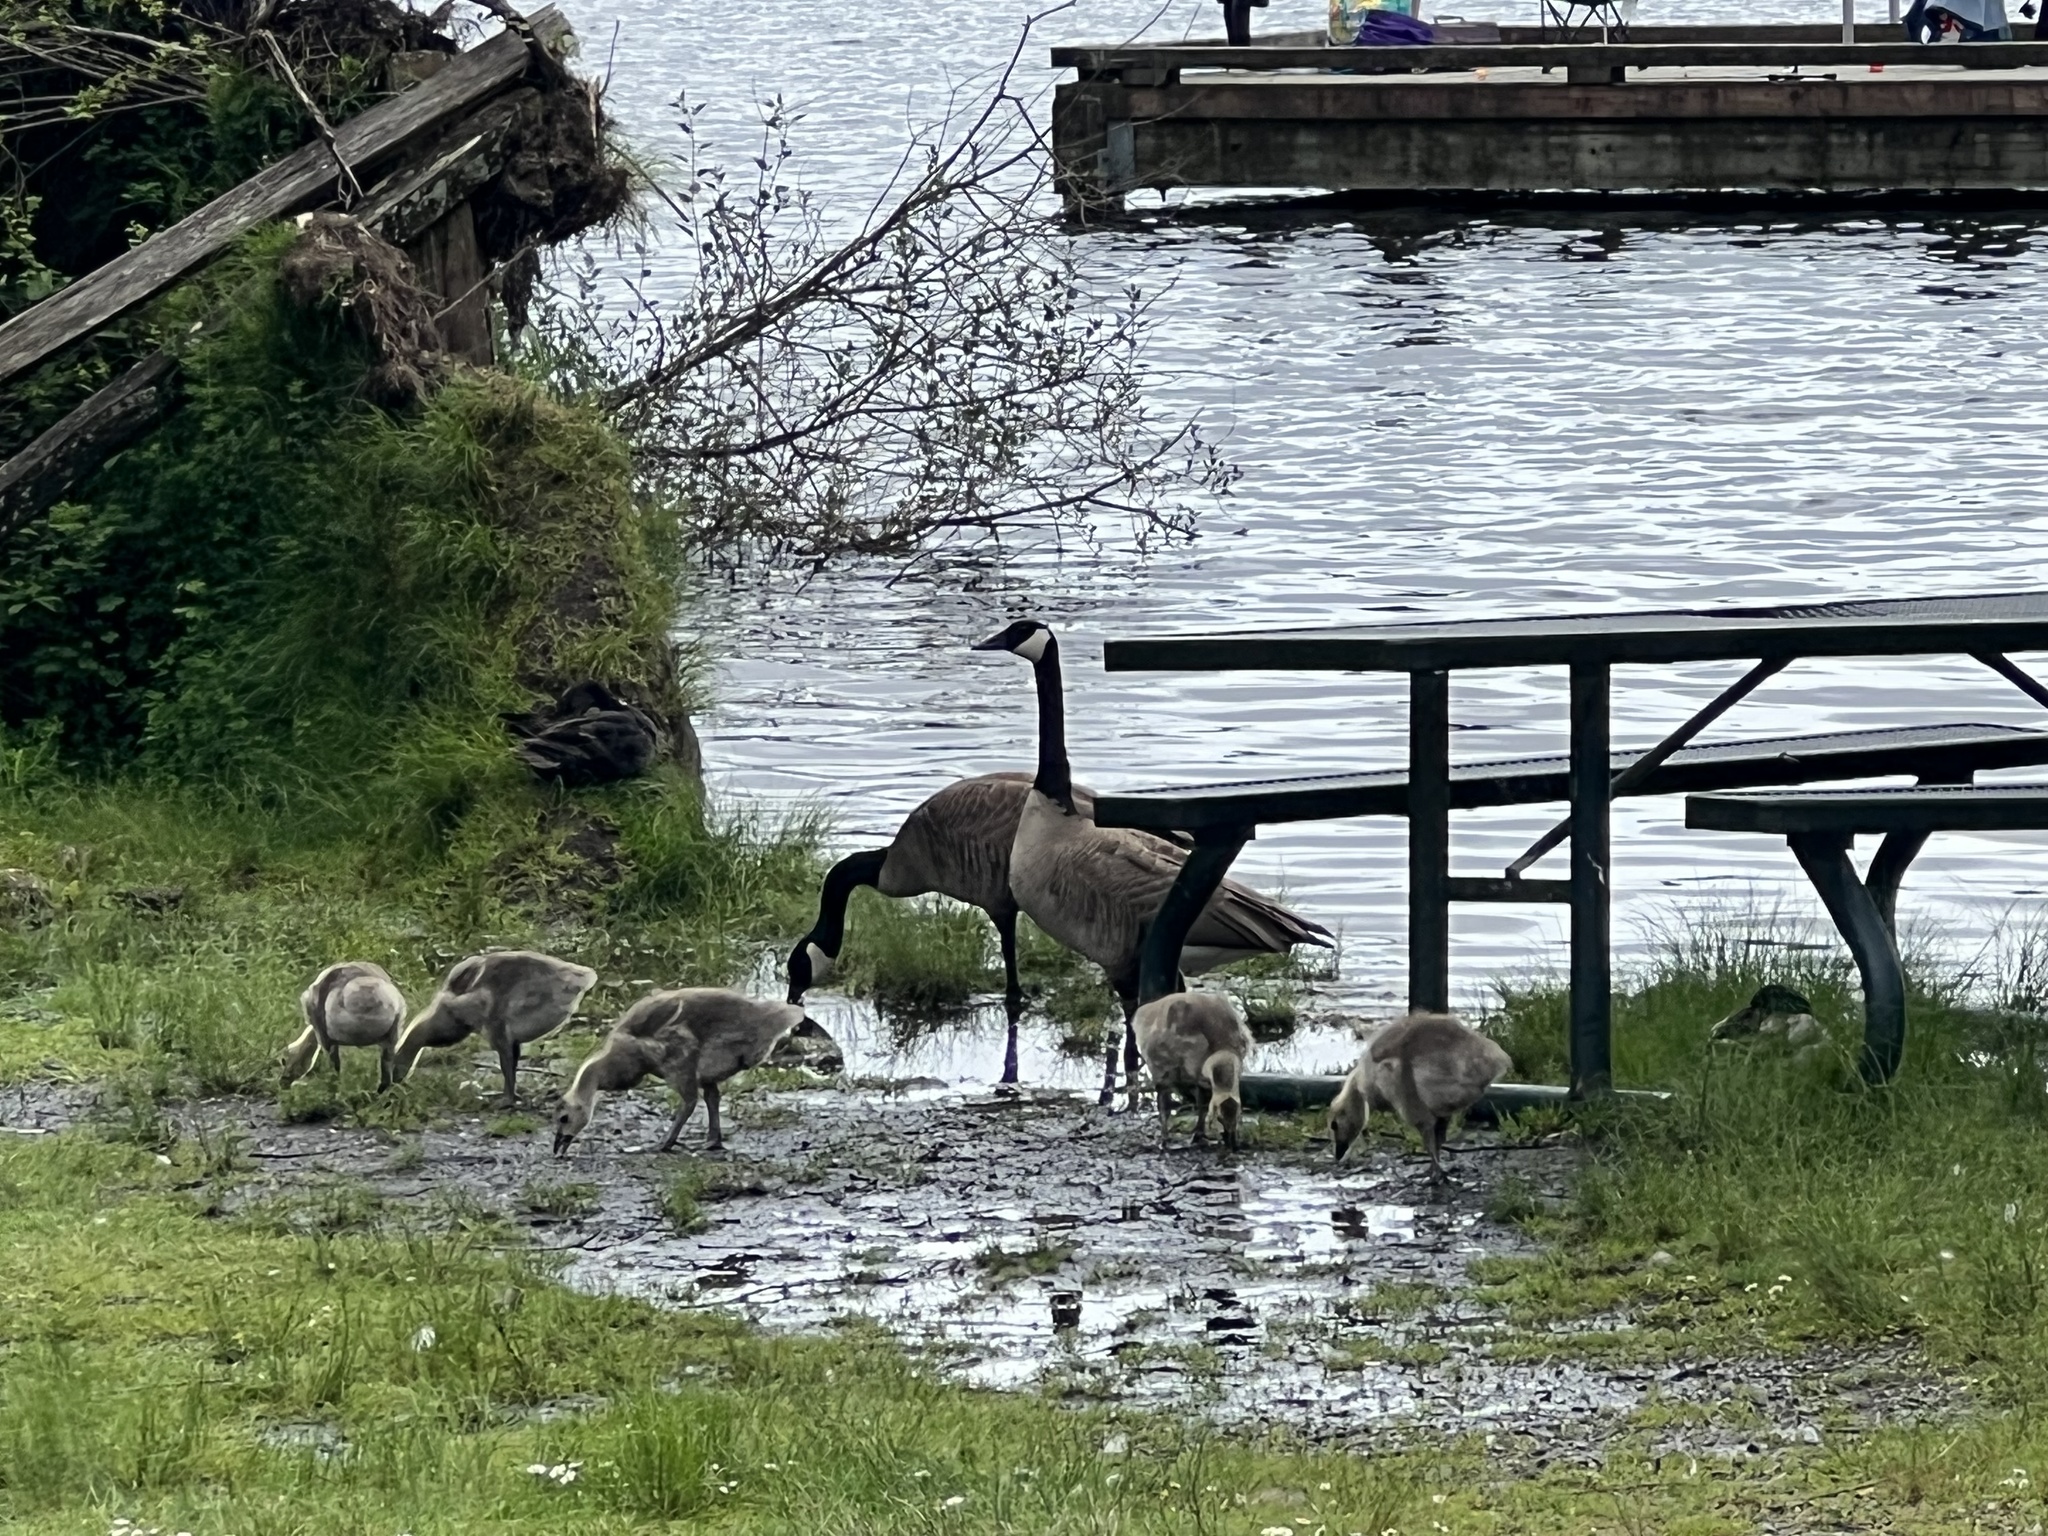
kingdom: Animalia
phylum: Chordata
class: Aves
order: Anseriformes
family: Anatidae
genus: Branta
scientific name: Branta canadensis
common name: Canada goose
